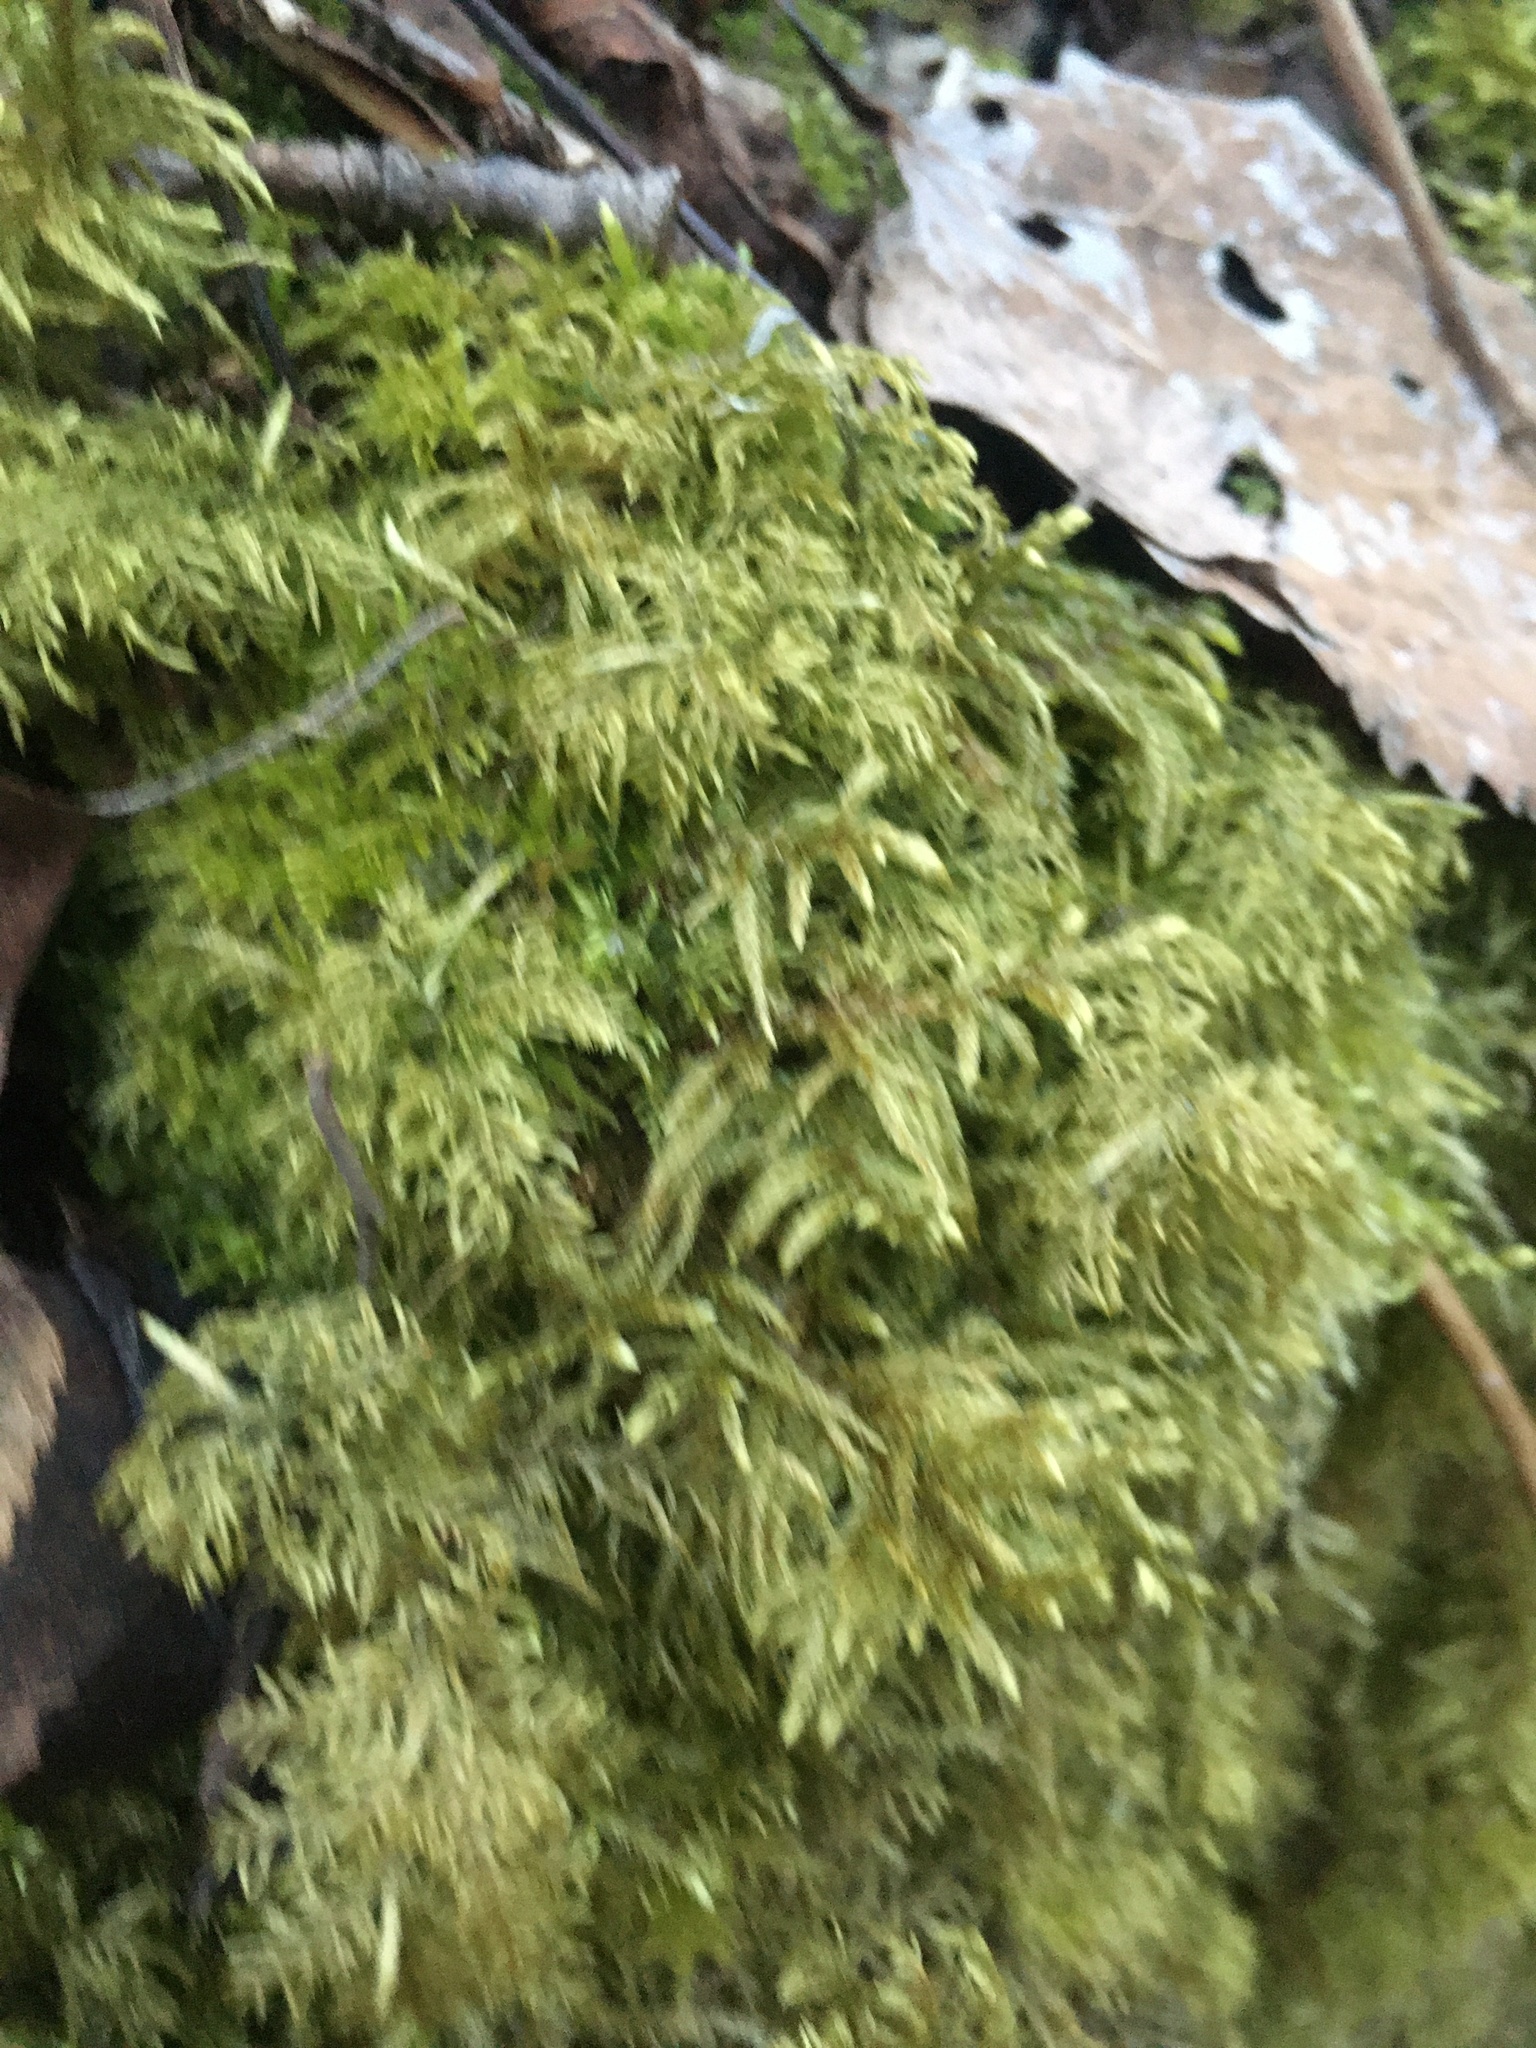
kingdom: Plantae
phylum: Bryophyta
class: Bryopsida
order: Hypnales
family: Hylocomiaceae
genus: Hylocomium
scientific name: Hylocomium splendens
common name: Stairstep moss
